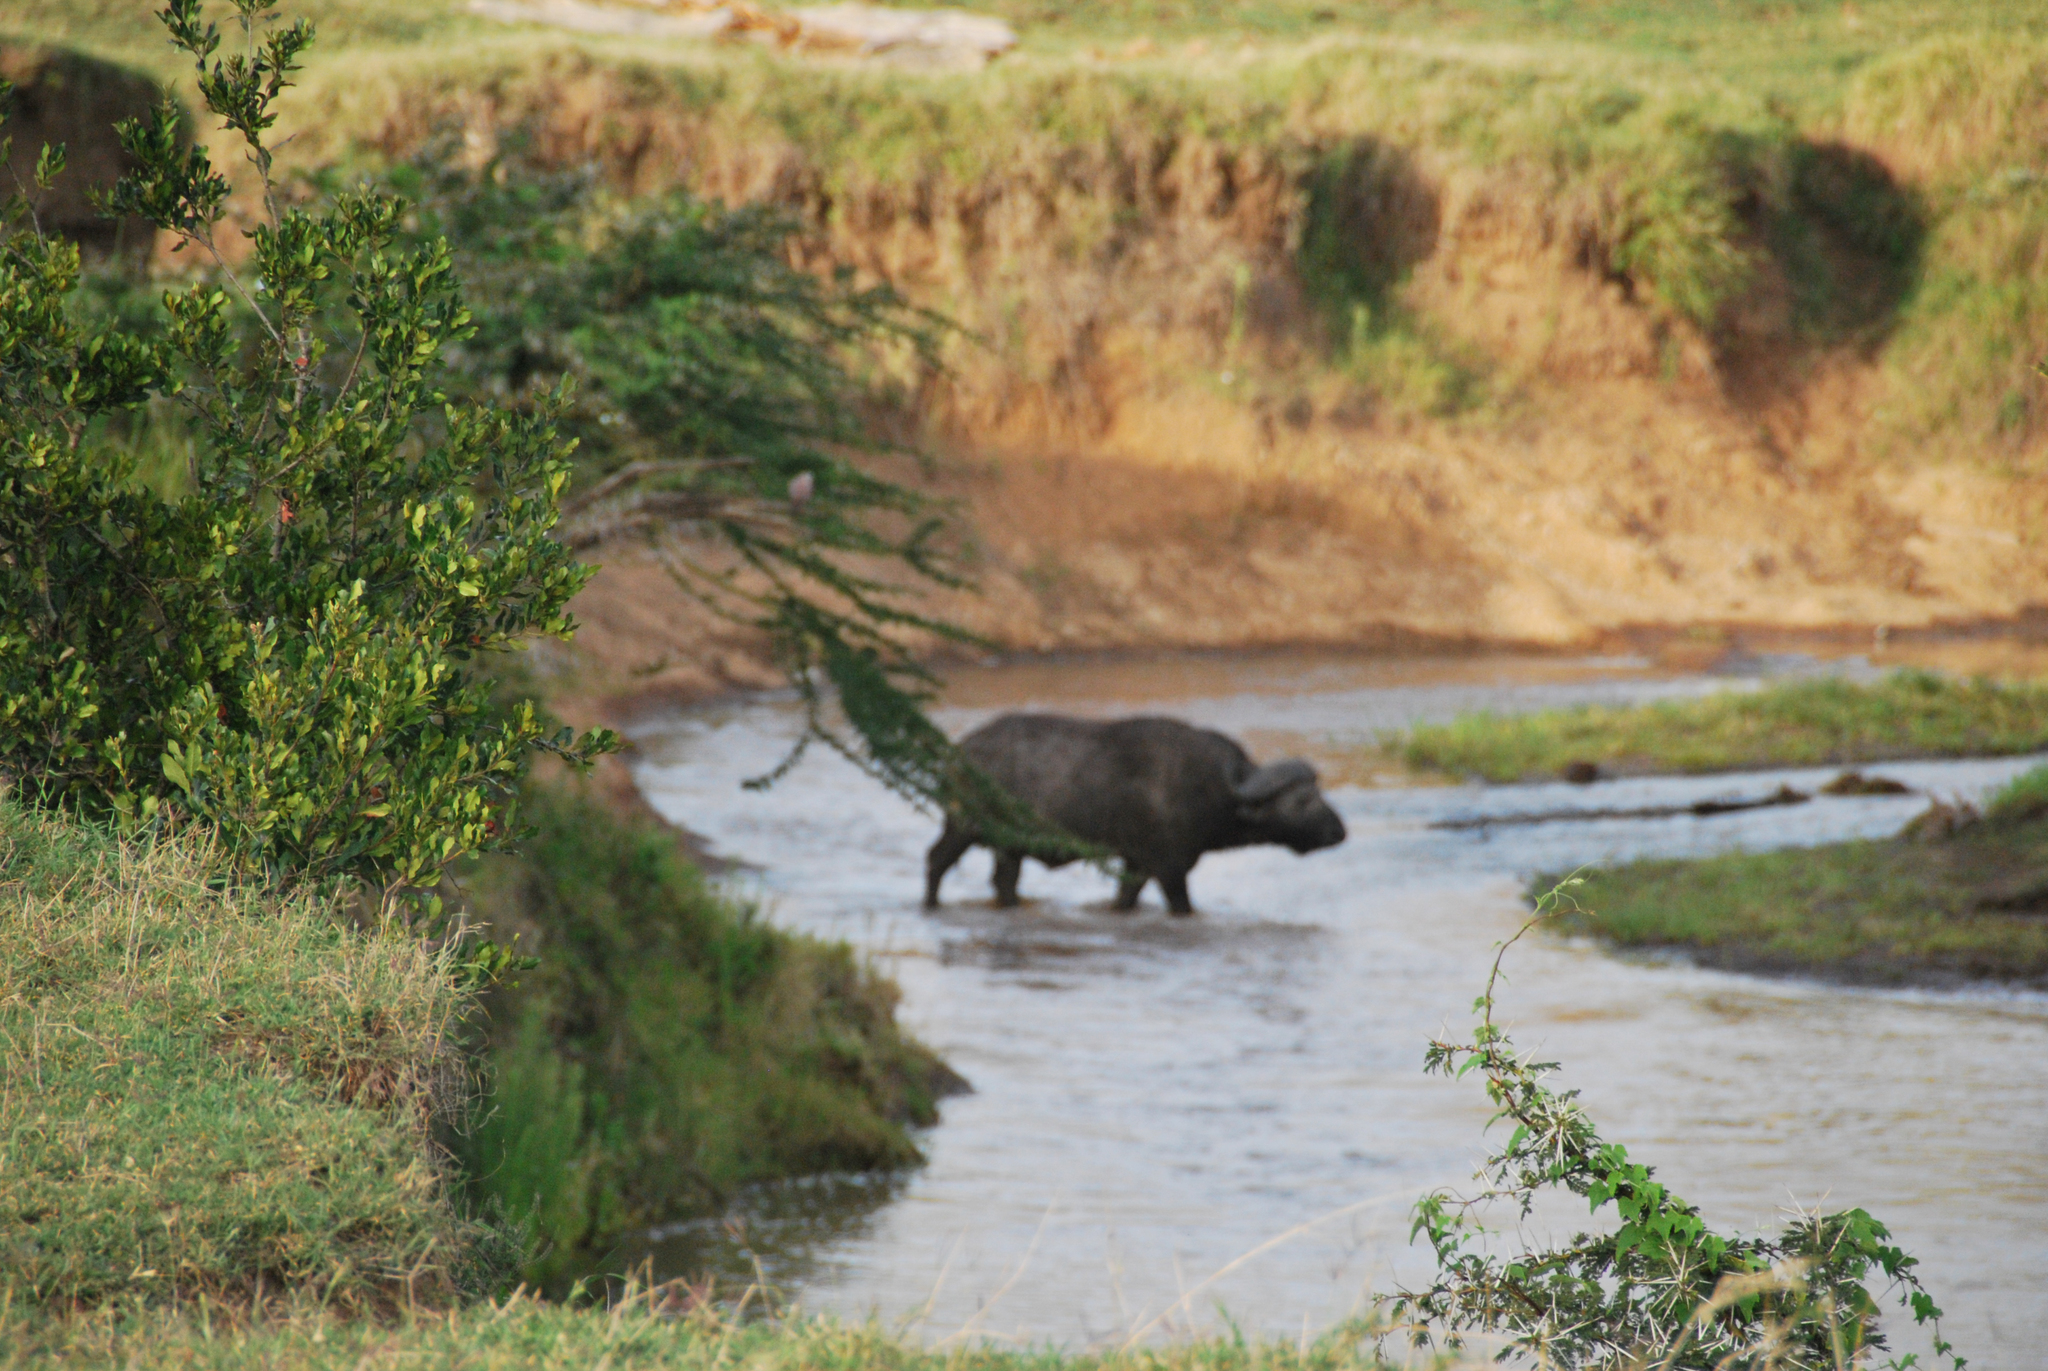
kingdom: Animalia
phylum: Chordata
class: Mammalia
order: Artiodactyla
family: Bovidae
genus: Syncerus
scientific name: Syncerus caffer
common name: African buffalo
